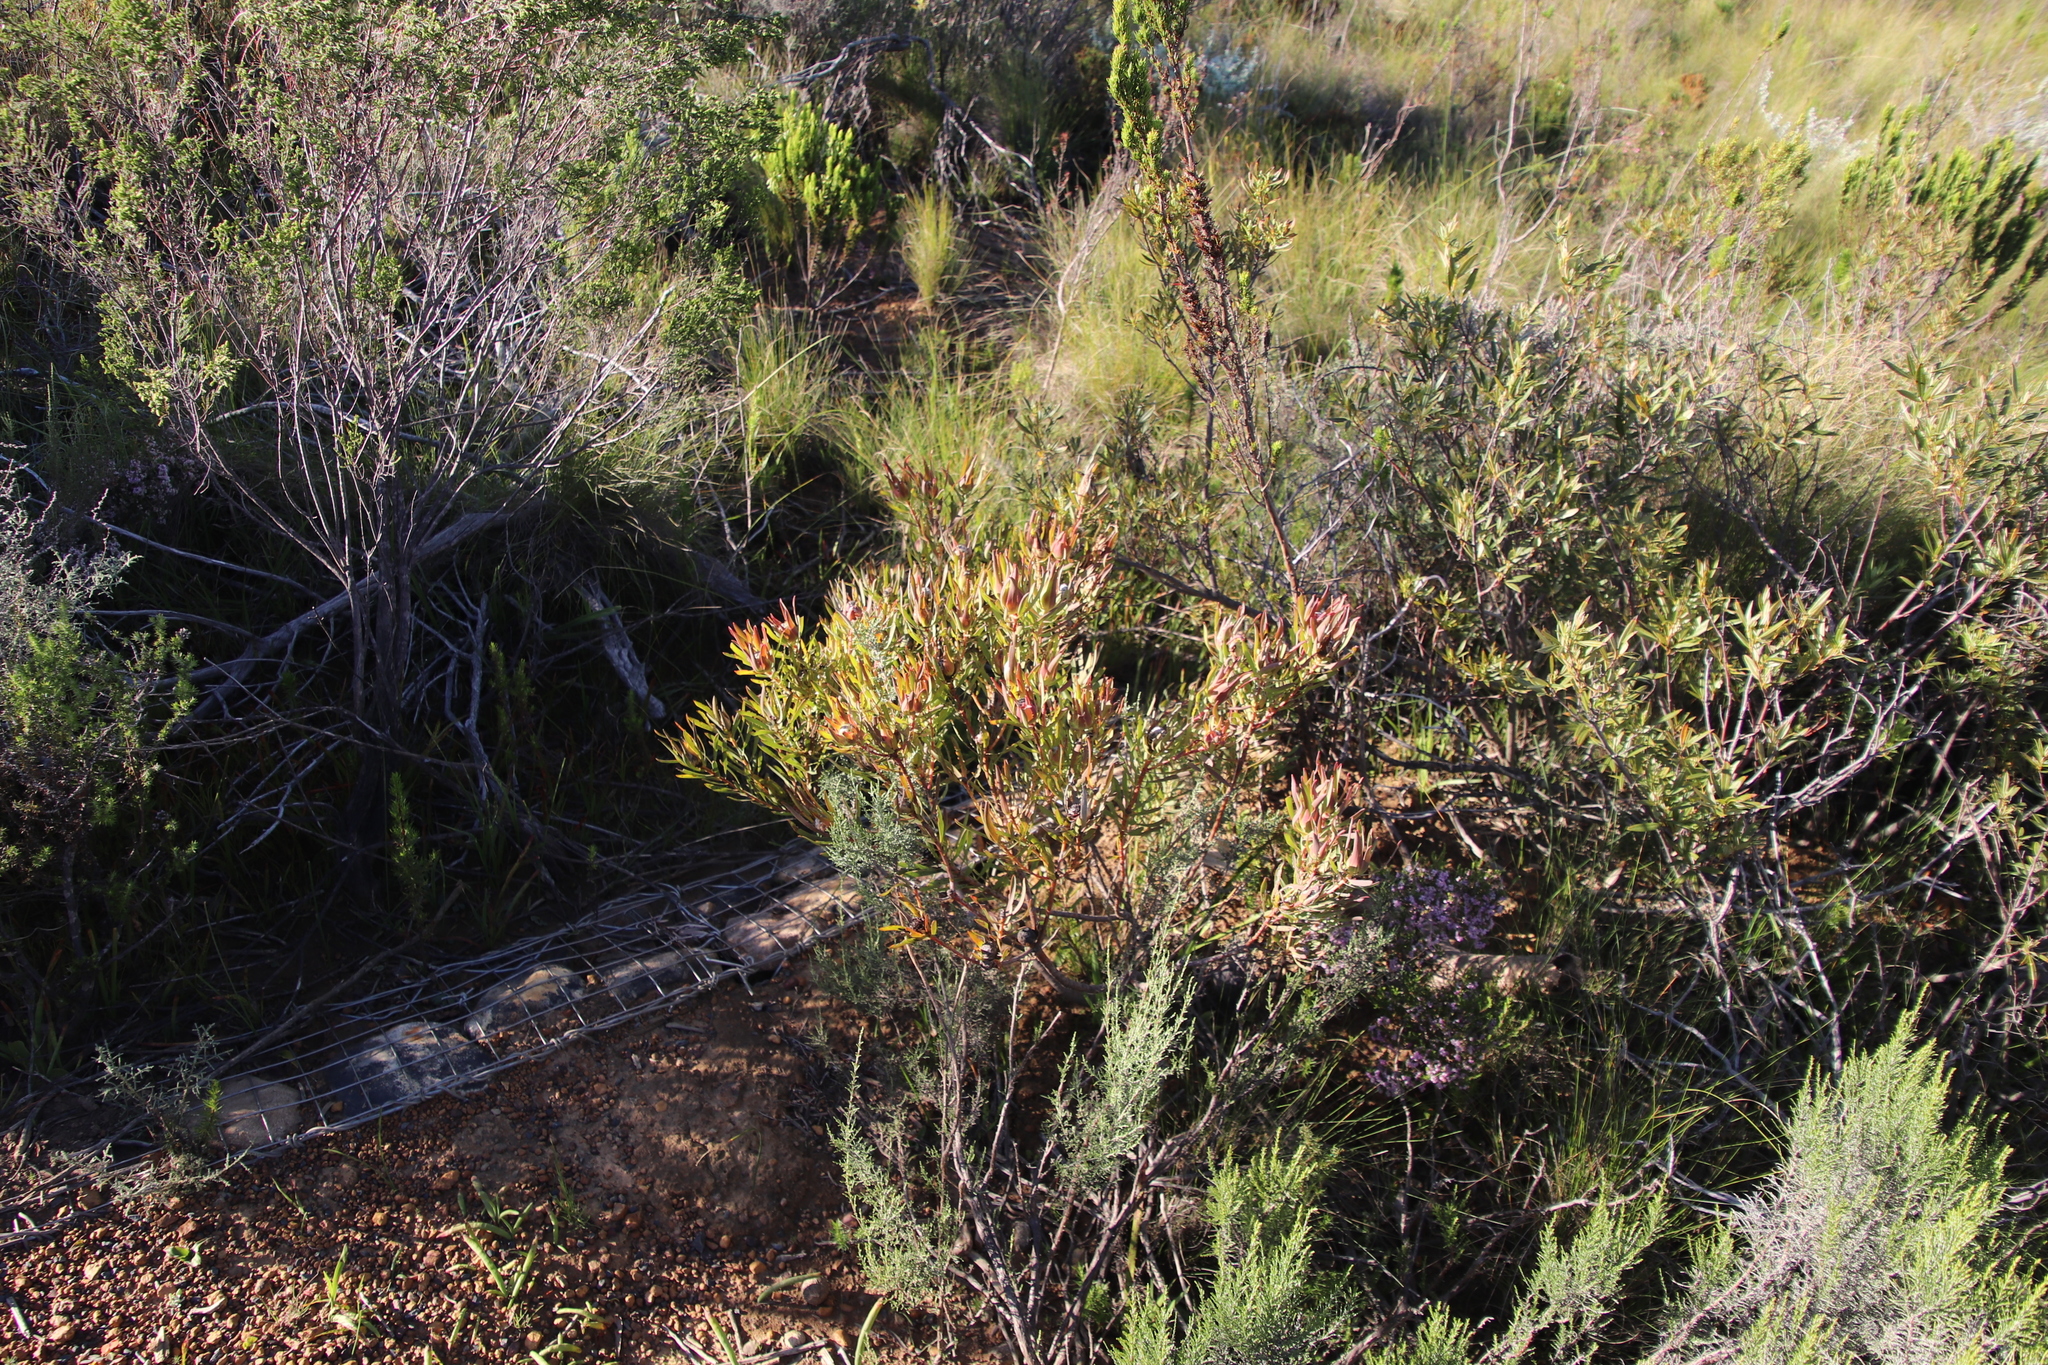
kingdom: Plantae
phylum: Tracheophyta
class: Magnoliopsida
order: Proteales
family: Proteaceae
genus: Leucadendron
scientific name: Leucadendron salignum
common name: Common sunshine conebush
